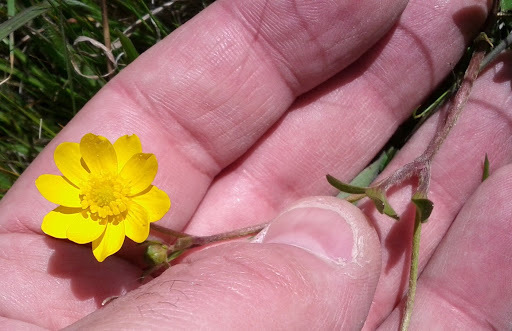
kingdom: Plantae
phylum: Tracheophyta
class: Magnoliopsida
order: Ranunculales
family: Ranunculaceae
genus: Ranunculus
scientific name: Ranunculus californicus
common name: California buttercup
